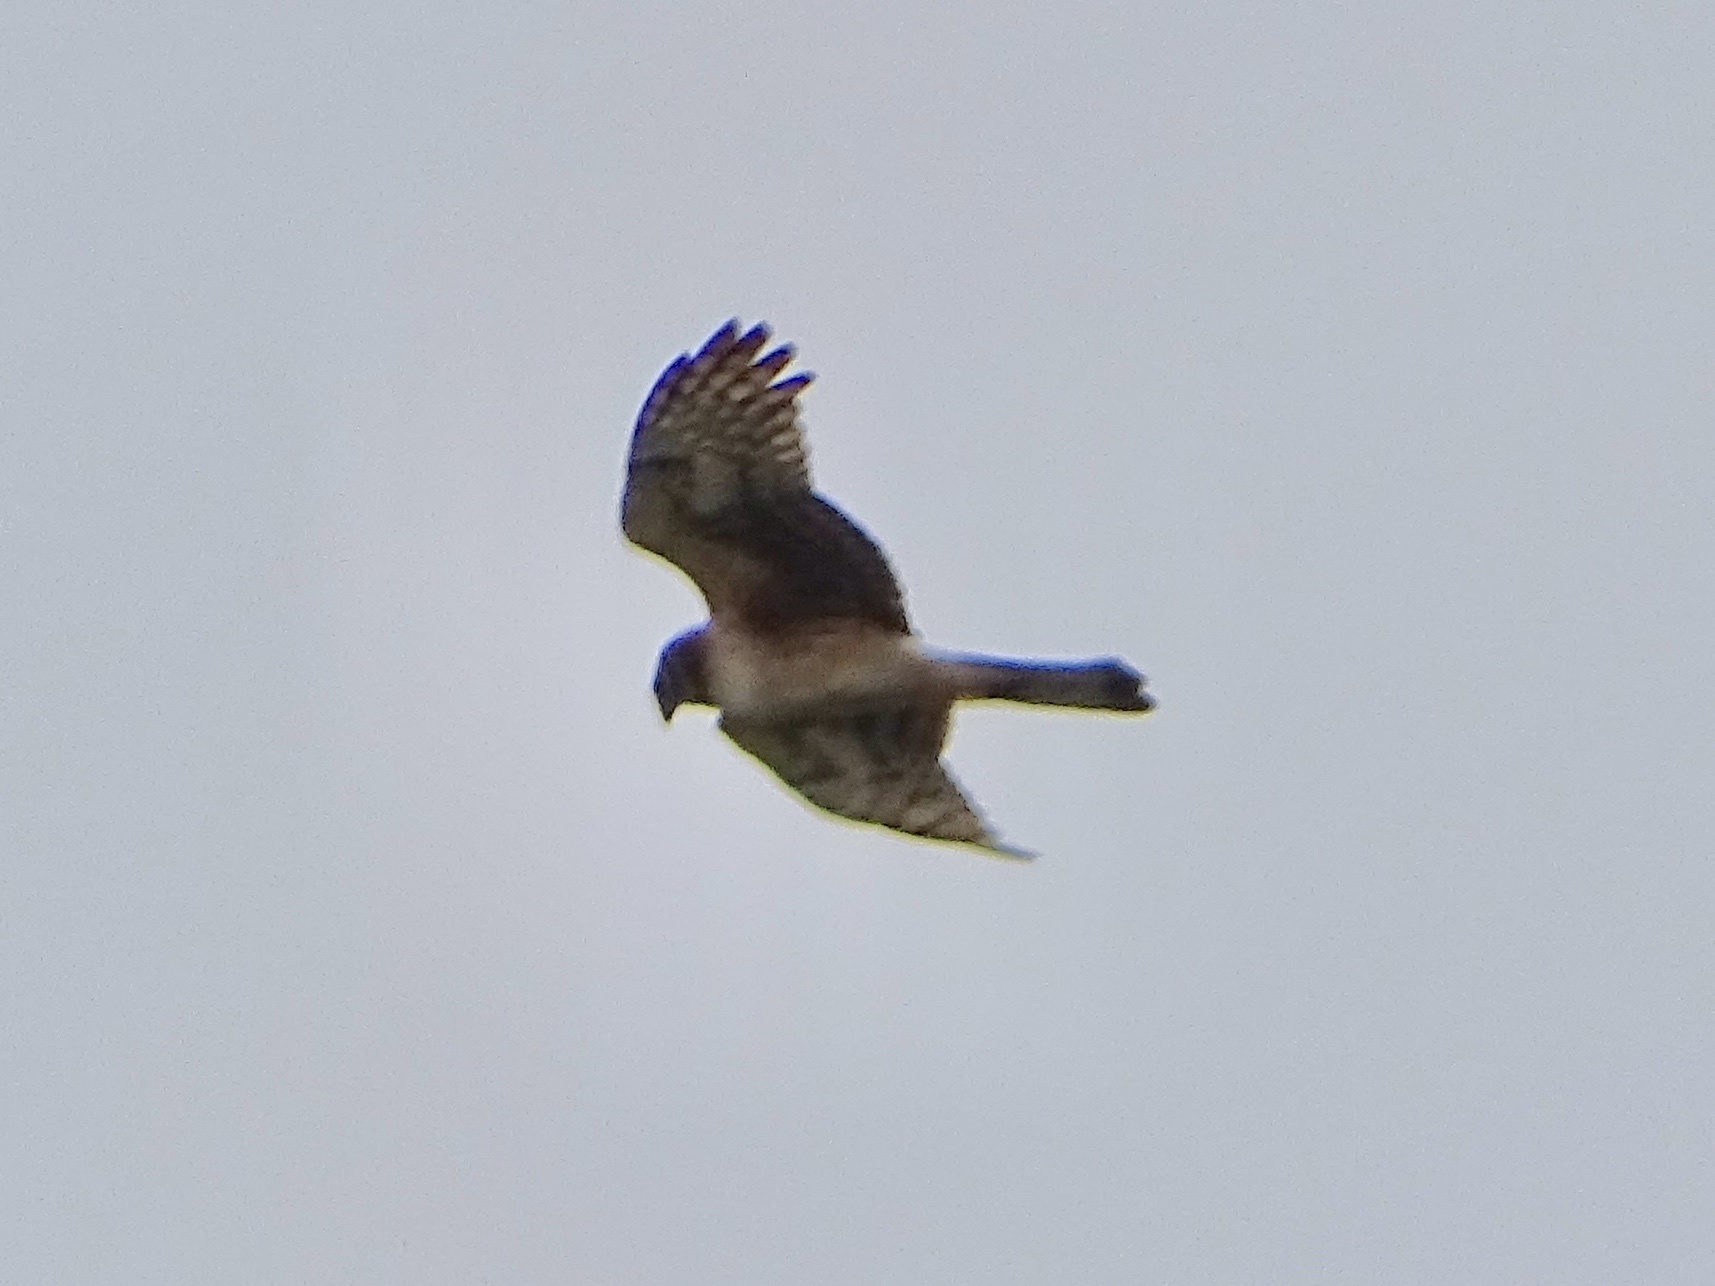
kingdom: Animalia
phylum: Chordata
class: Aves
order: Accipitriformes
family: Accipitridae
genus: Circus
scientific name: Circus cyaneus
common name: Hen harrier
